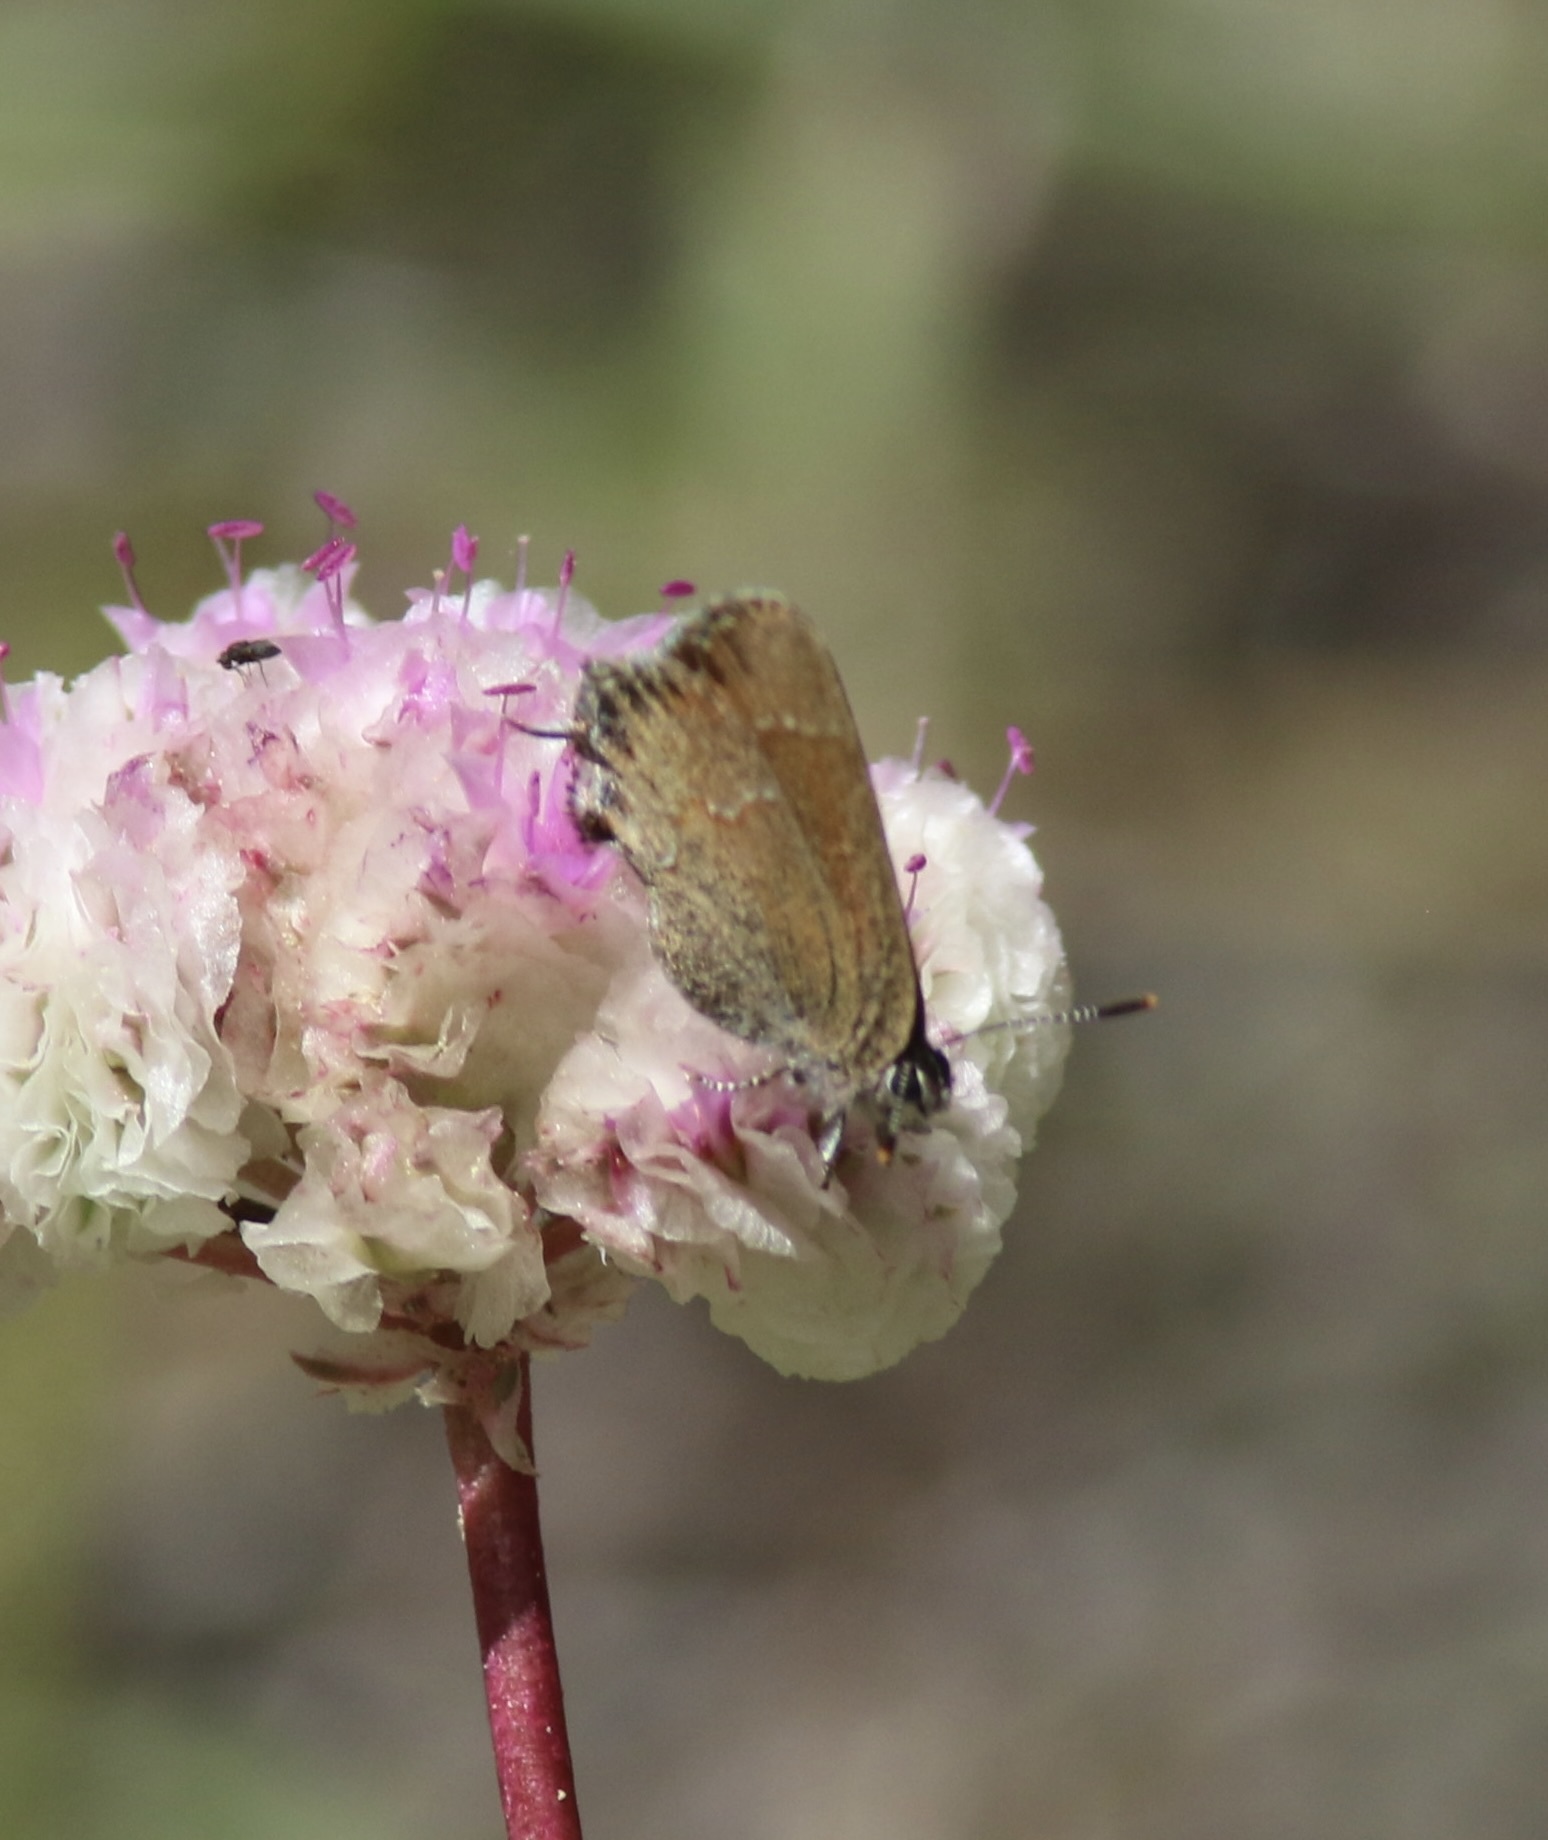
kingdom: Animalia
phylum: Arthropoda
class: Insecta
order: Lepidoptera
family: Lycaenidae
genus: Mitoura
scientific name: Mitoura gryneus
